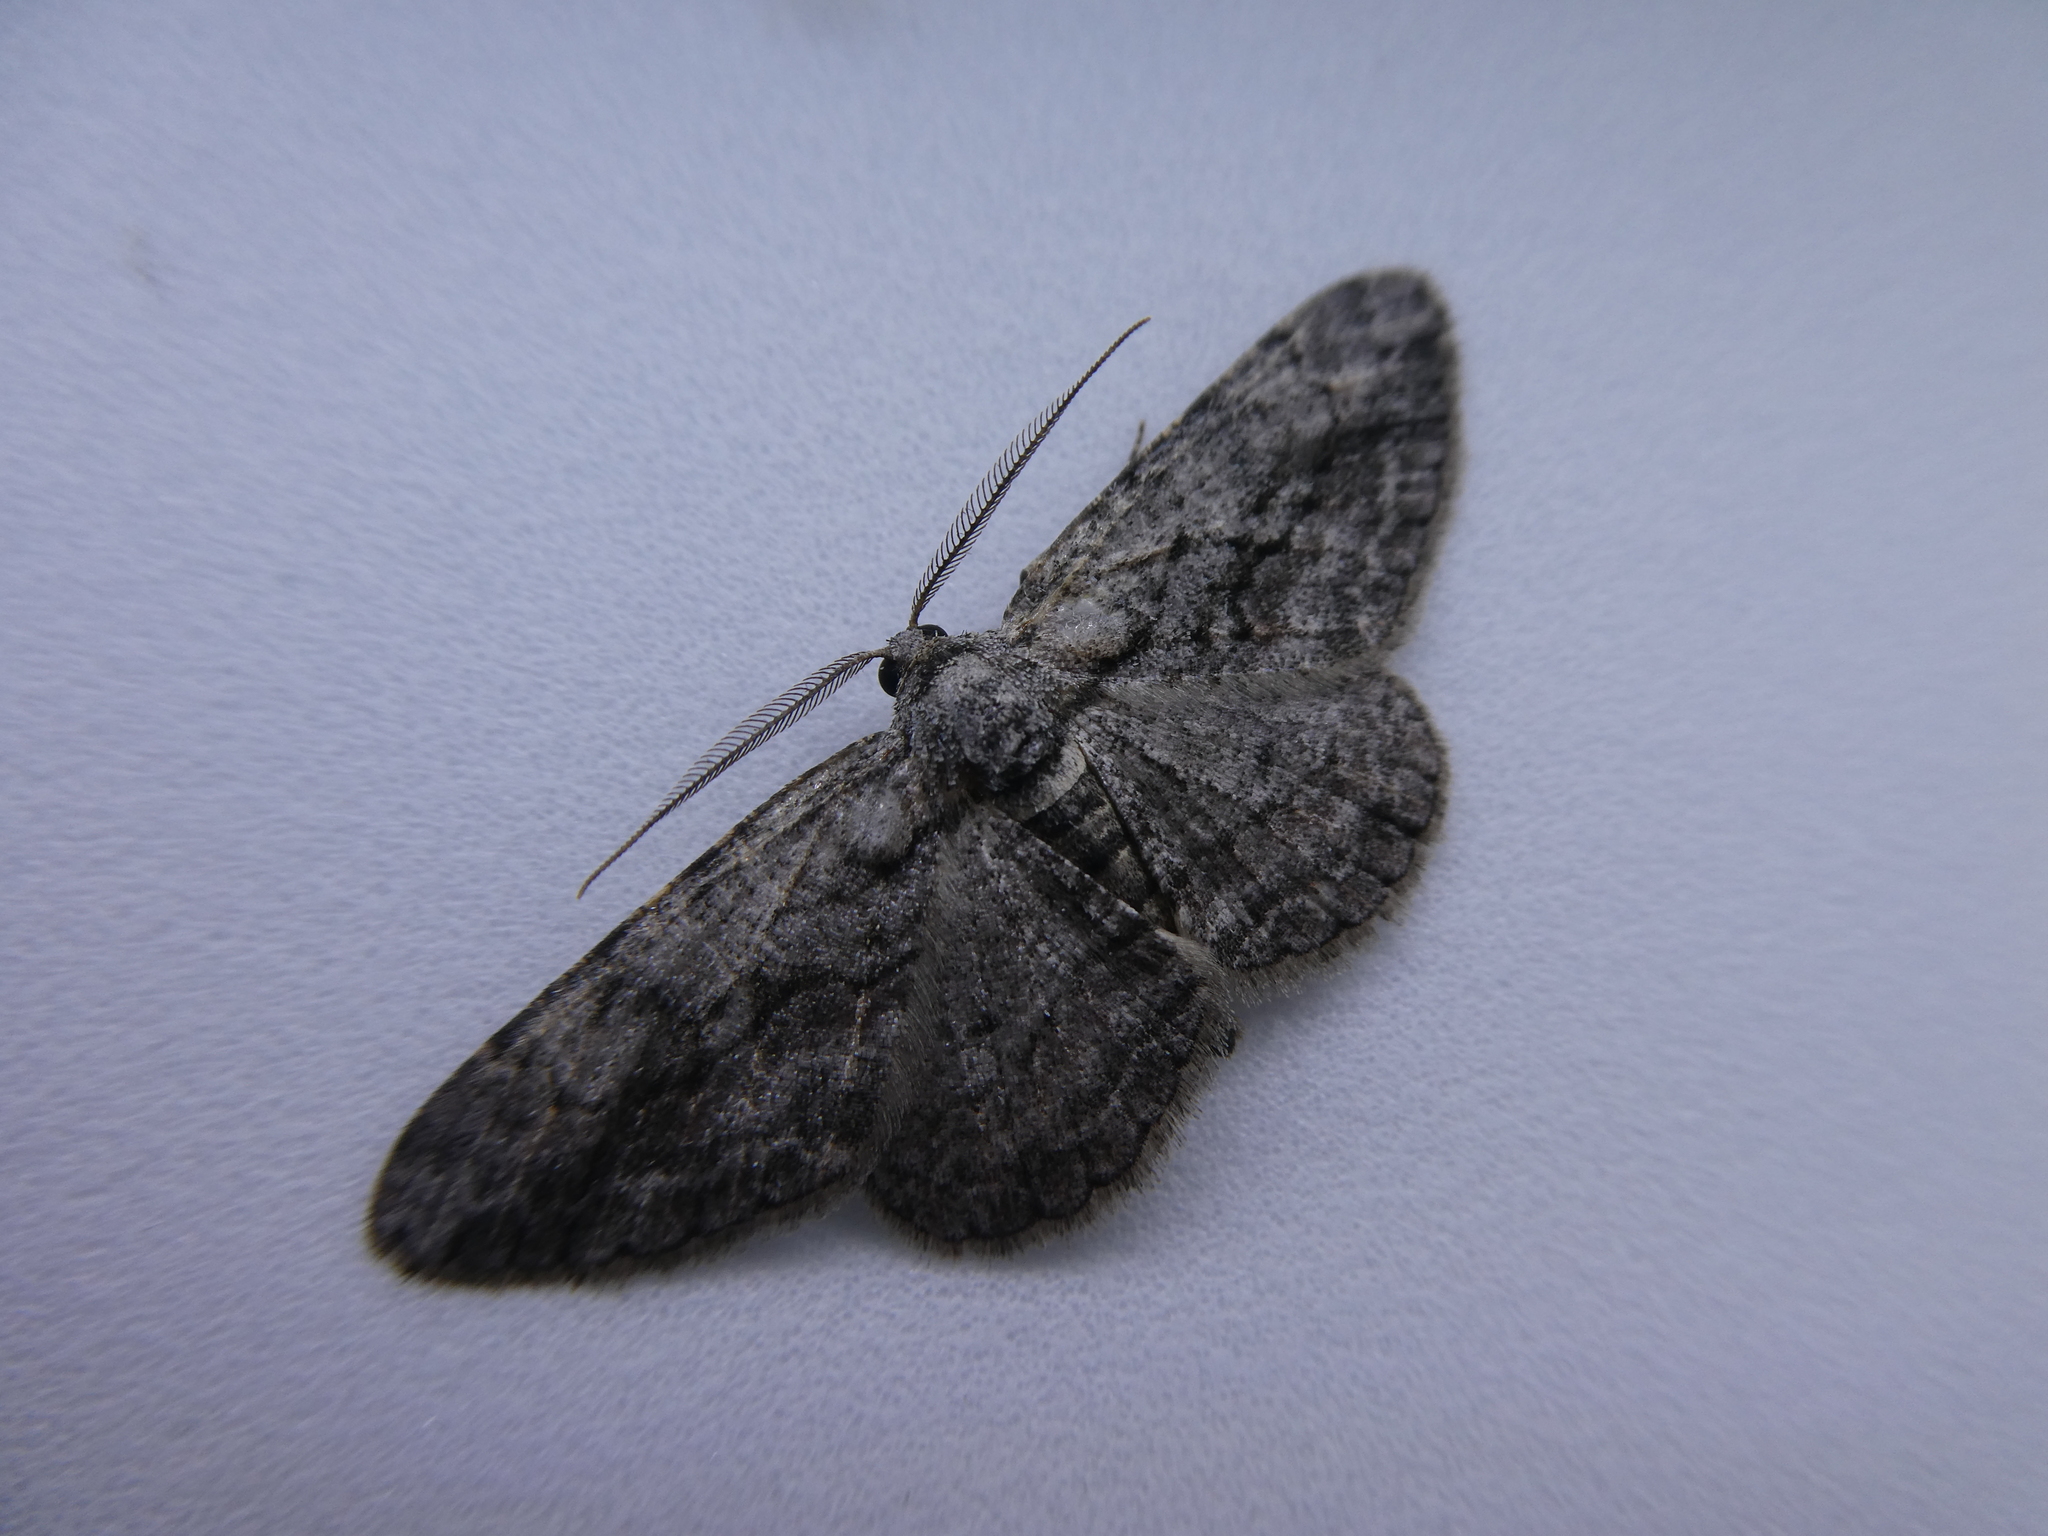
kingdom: Animalia
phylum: Arthropoda
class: Insecta
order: Lepidoptera
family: Geometridae
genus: Anavitrinella
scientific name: Anavitrinella pampinaria
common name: Common gray
